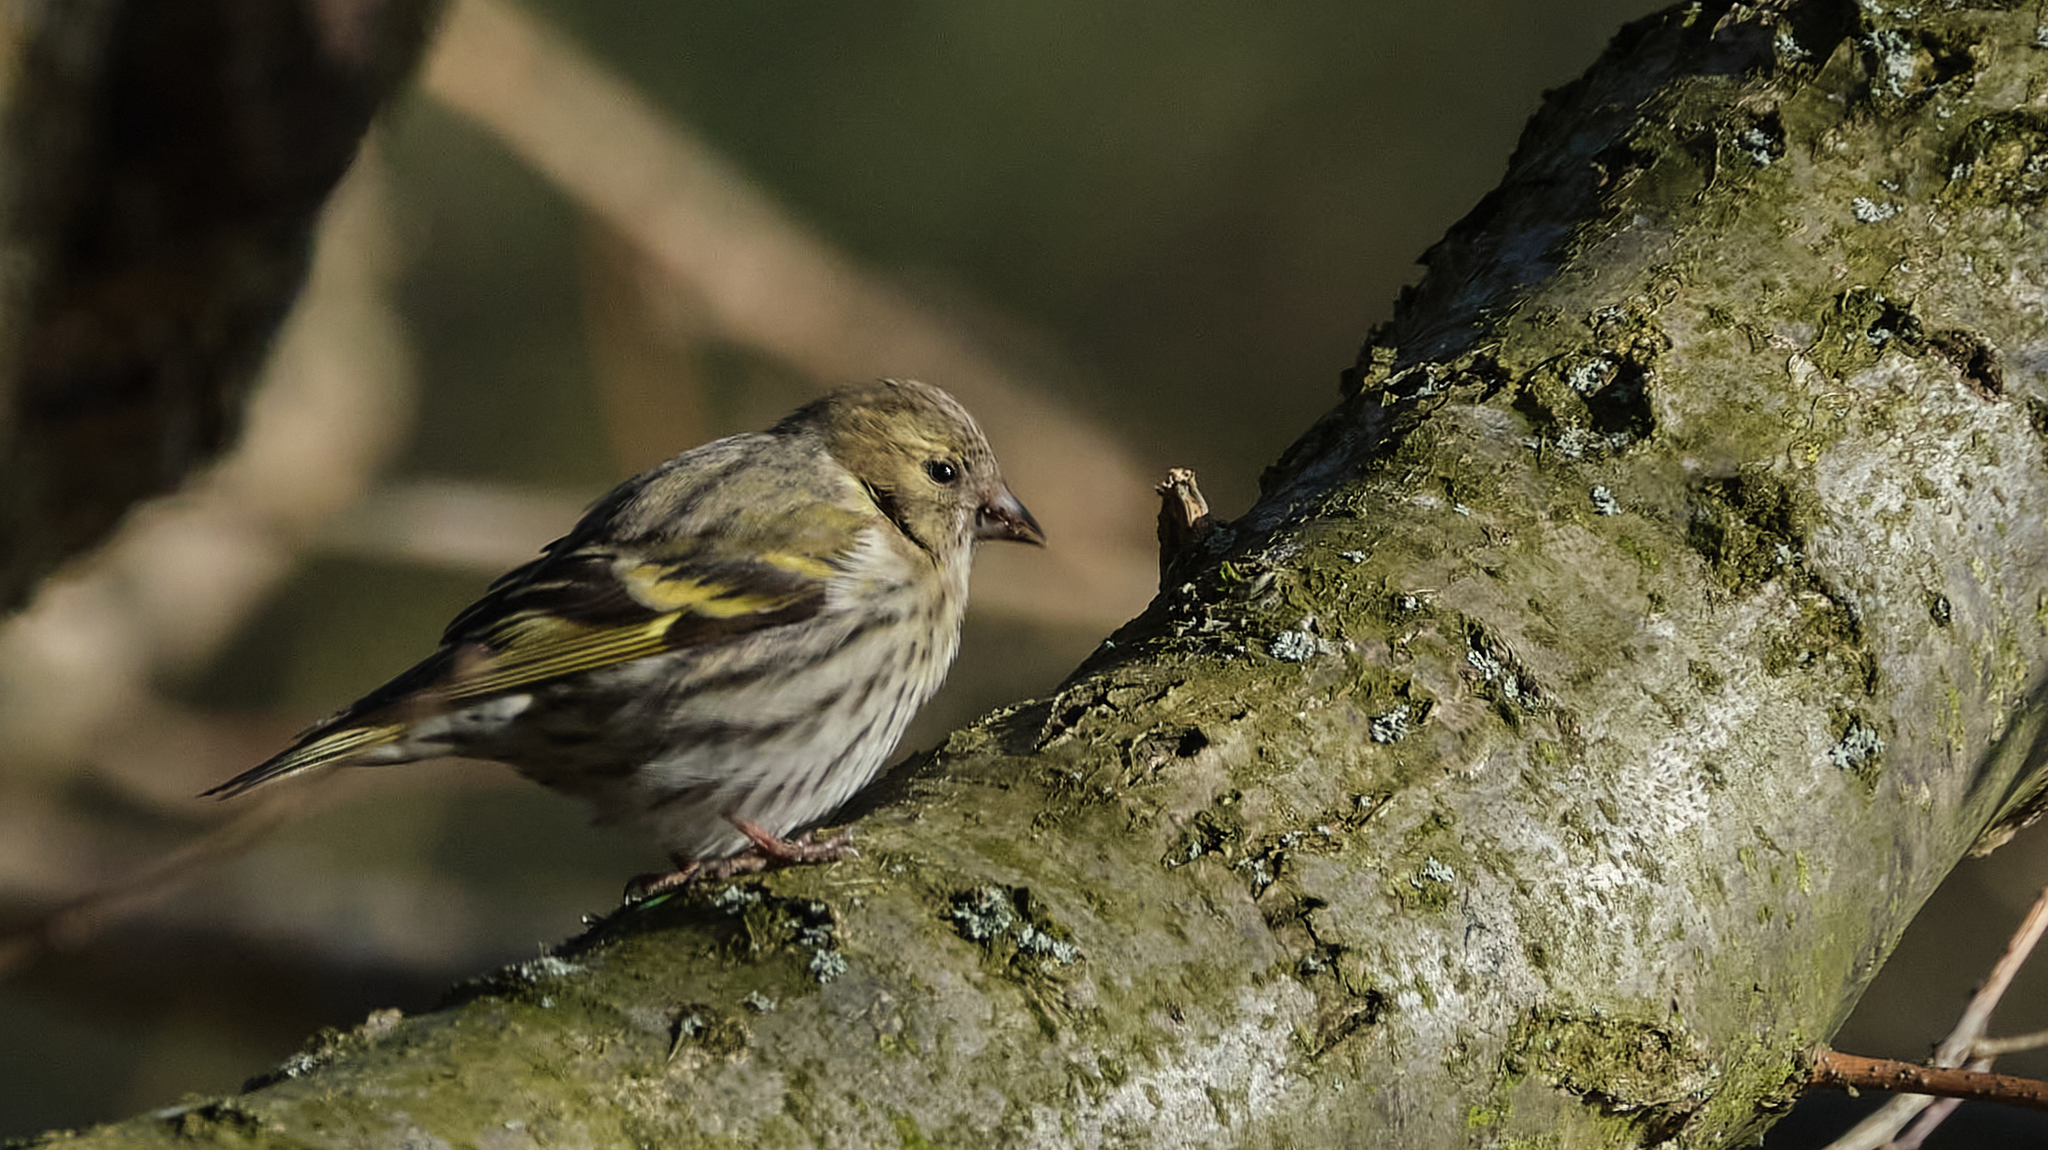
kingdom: Animalia
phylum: Chordata
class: Aves
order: Passeriformes
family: Fringillidae
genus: Spinus
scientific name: Spinus spinus
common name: Eurasian siskin
